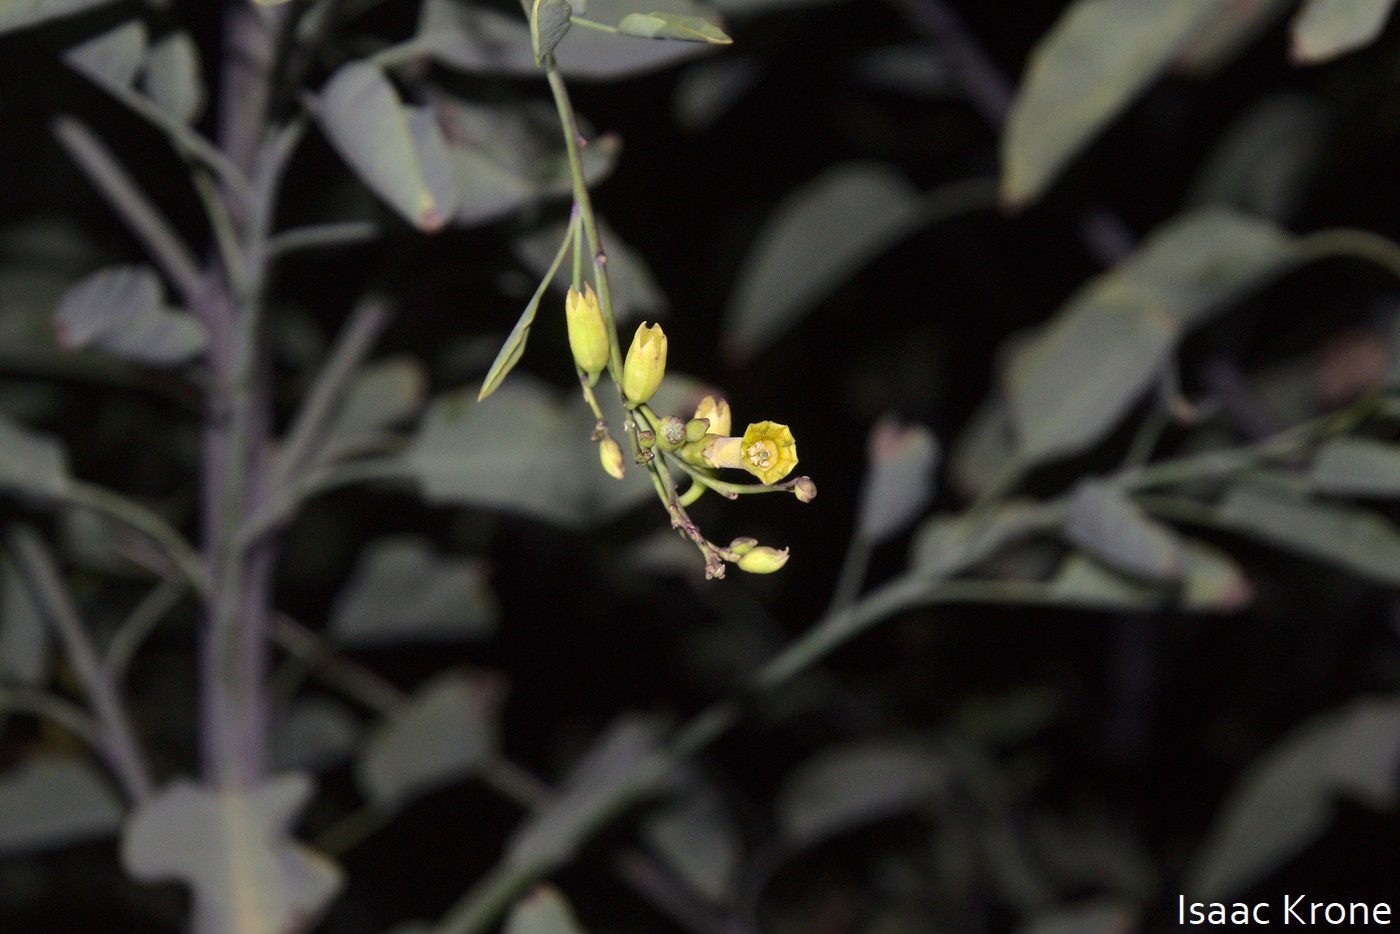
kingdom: Plantae
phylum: Tracheophyta
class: Magnoliopsida
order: Solanales
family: Solanaceae
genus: Nicotiana
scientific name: Nicotiana glauca
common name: Tree tobacco
